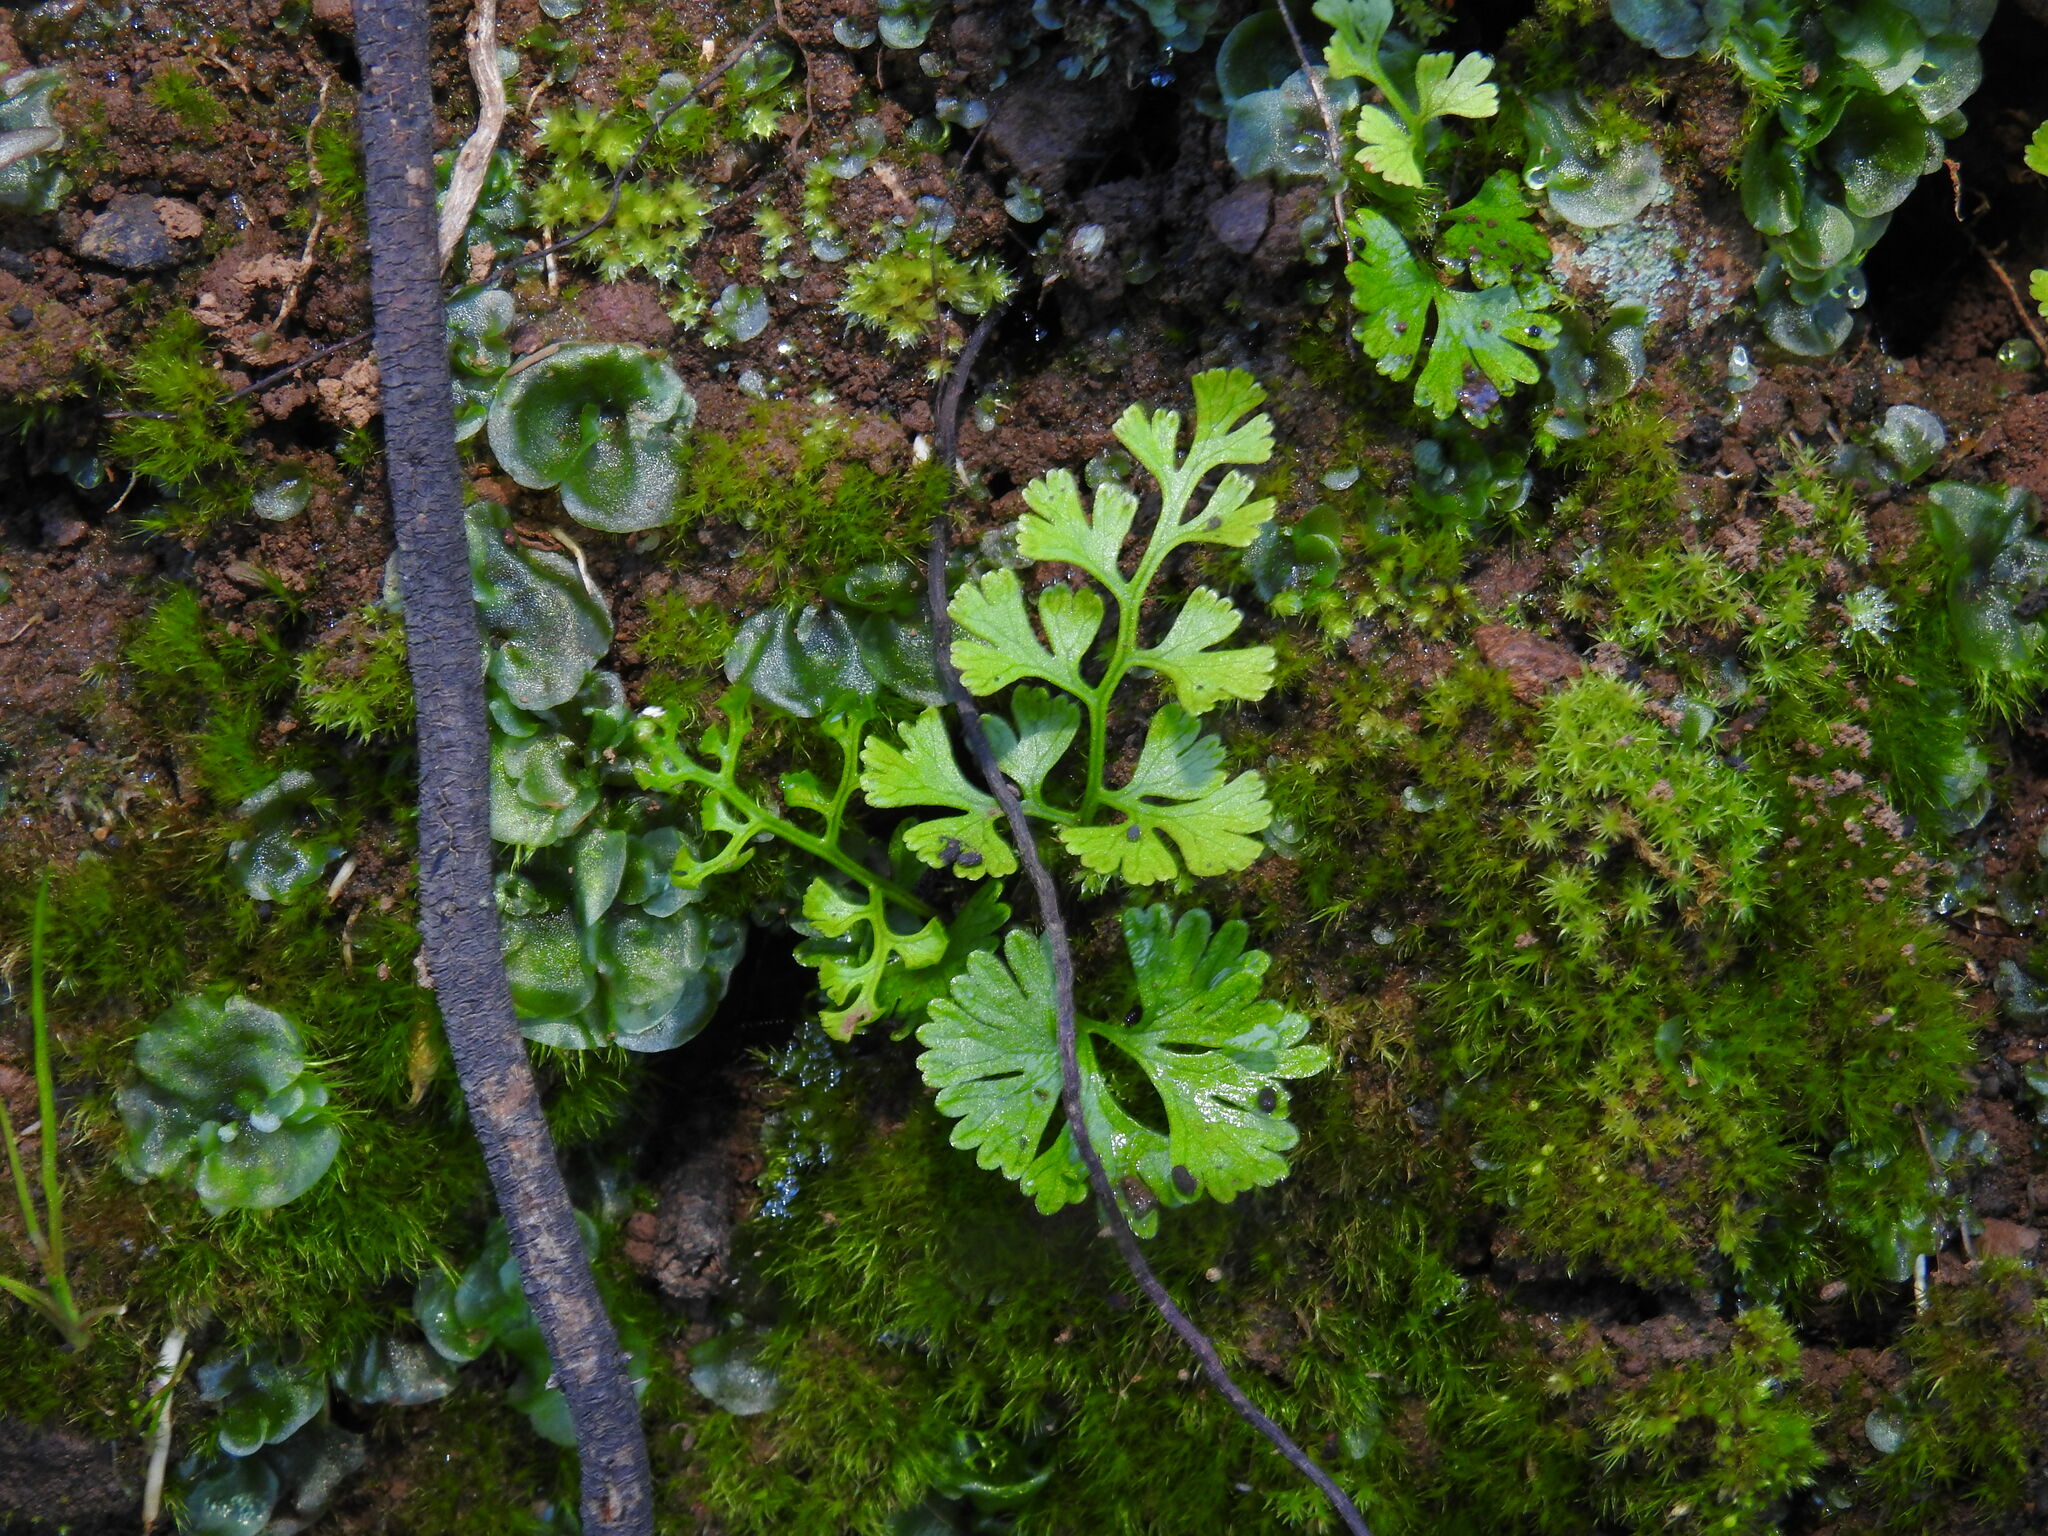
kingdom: Plantae
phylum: Tracheophyta
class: Polypodiopsida
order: Polypodiales
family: Pteridaceae
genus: Anogramma
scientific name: Anogramma leptophylla
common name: Jersey fern
